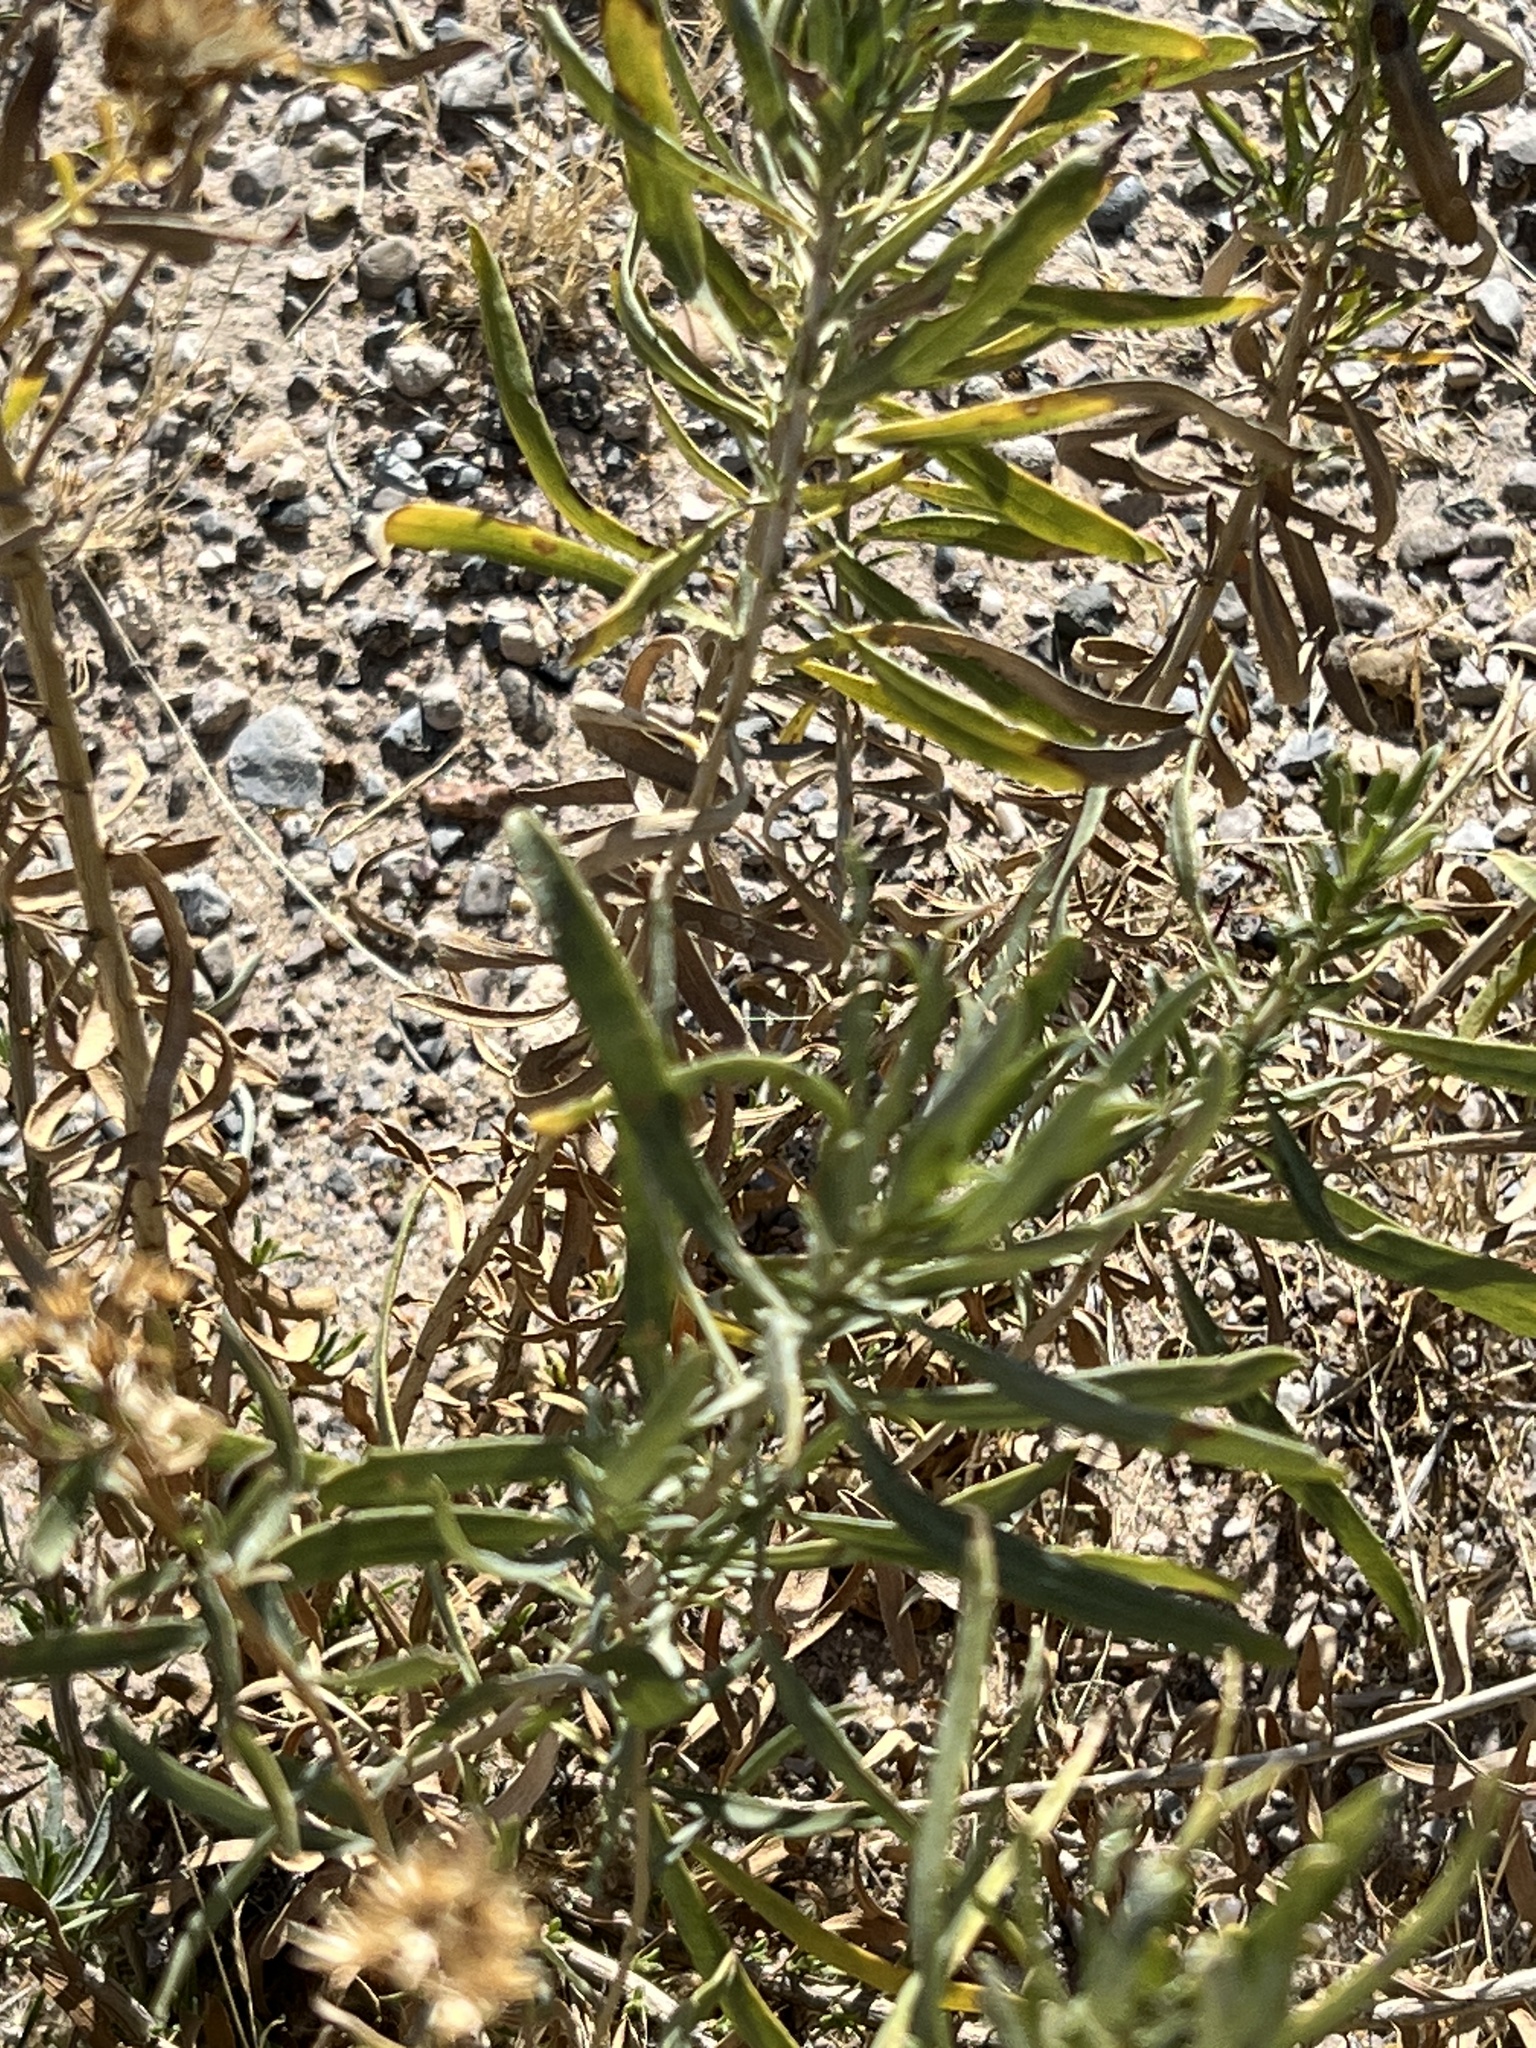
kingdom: Plantae
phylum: Tracheophyta
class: Magnoliopsida
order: Brassicales
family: Cleomaceae
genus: Polanisia
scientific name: Polanisia dodecandra
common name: Clammyweed
